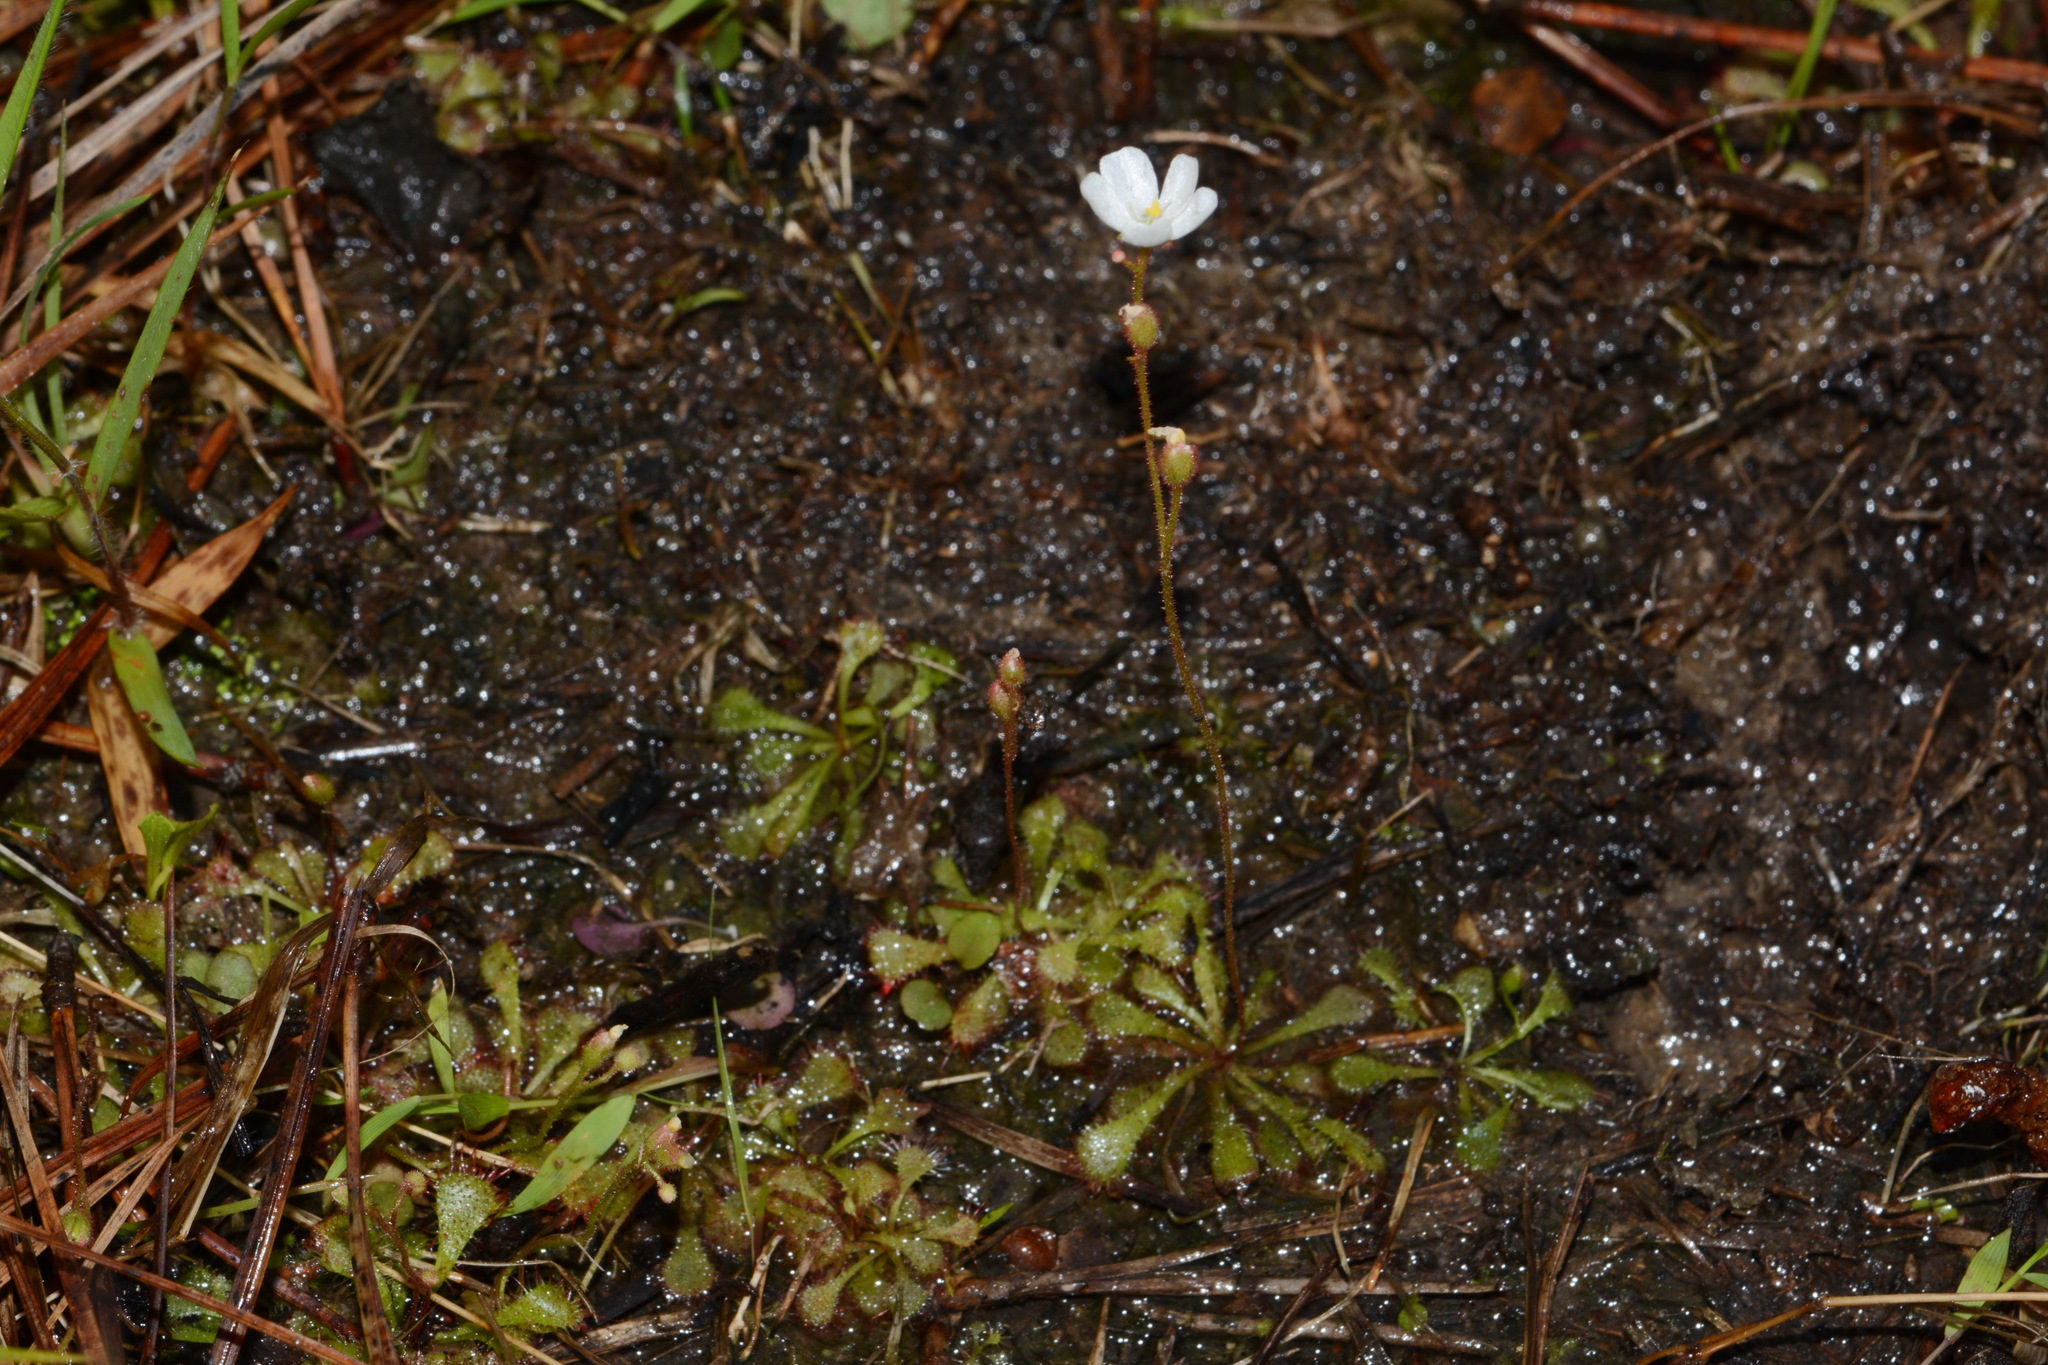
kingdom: Plantae
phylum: Tracheophyta
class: Magnoliopsida
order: Caryophyllales
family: Droseraceae
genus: Drosera
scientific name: Drosera brevifolia
